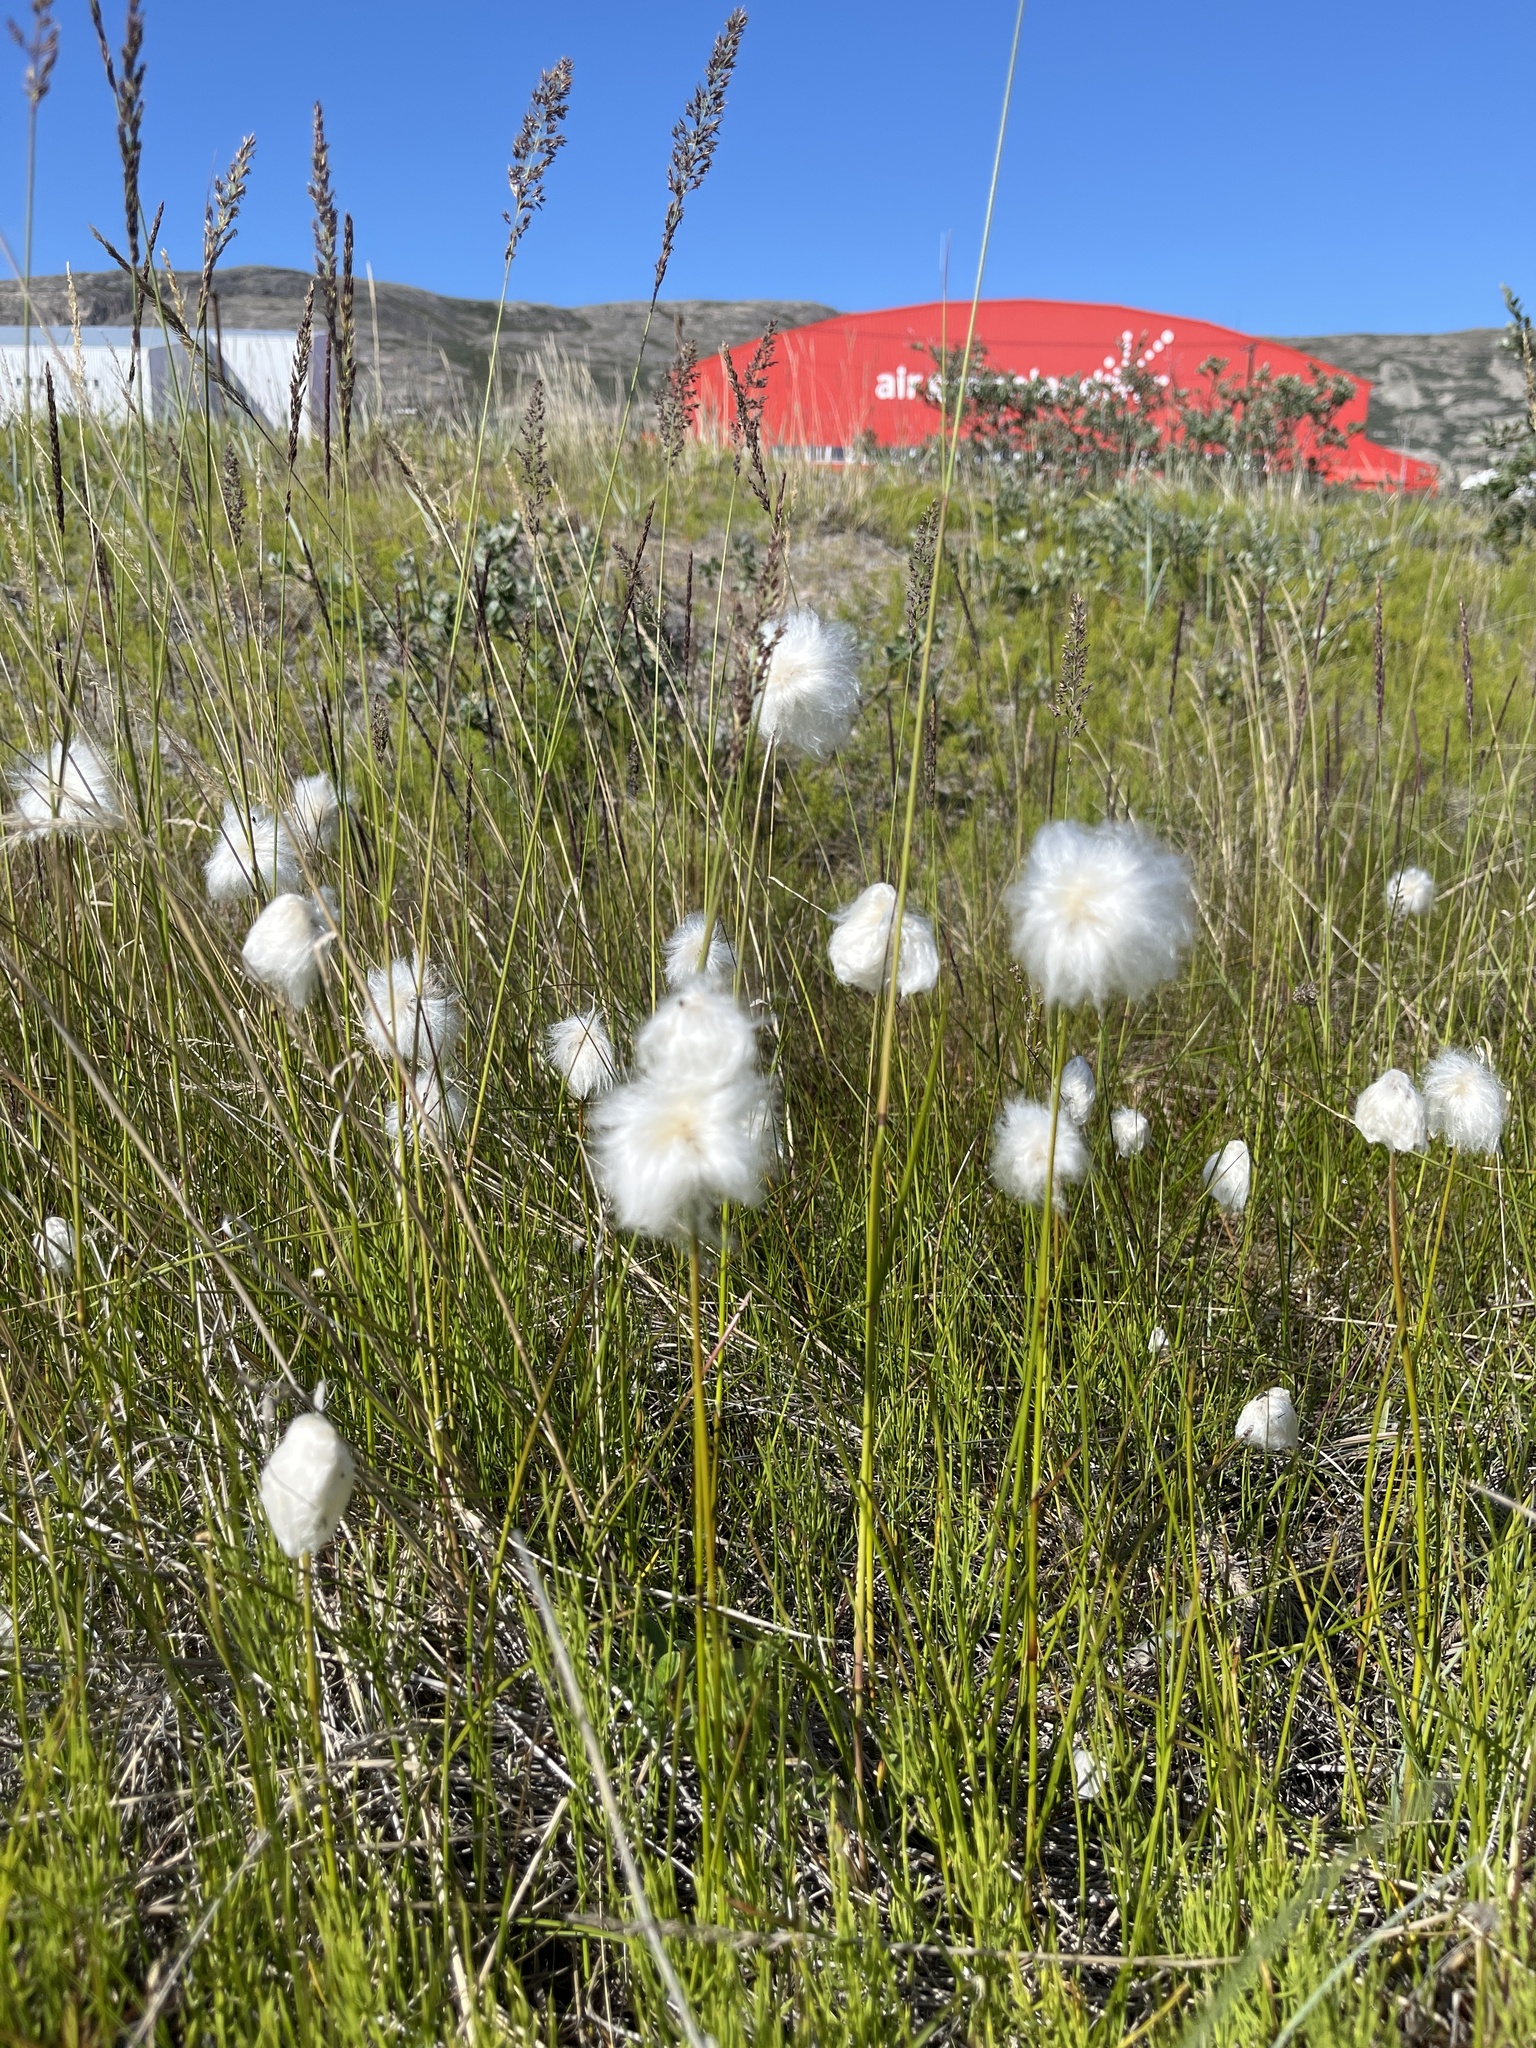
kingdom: Plantae
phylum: Tracheophyta
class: Liliopsida
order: Poales
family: Cyperaceae
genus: Eriophorum
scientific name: Eriophorum scheuchzeri
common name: Scheuchzer's cottongrass
